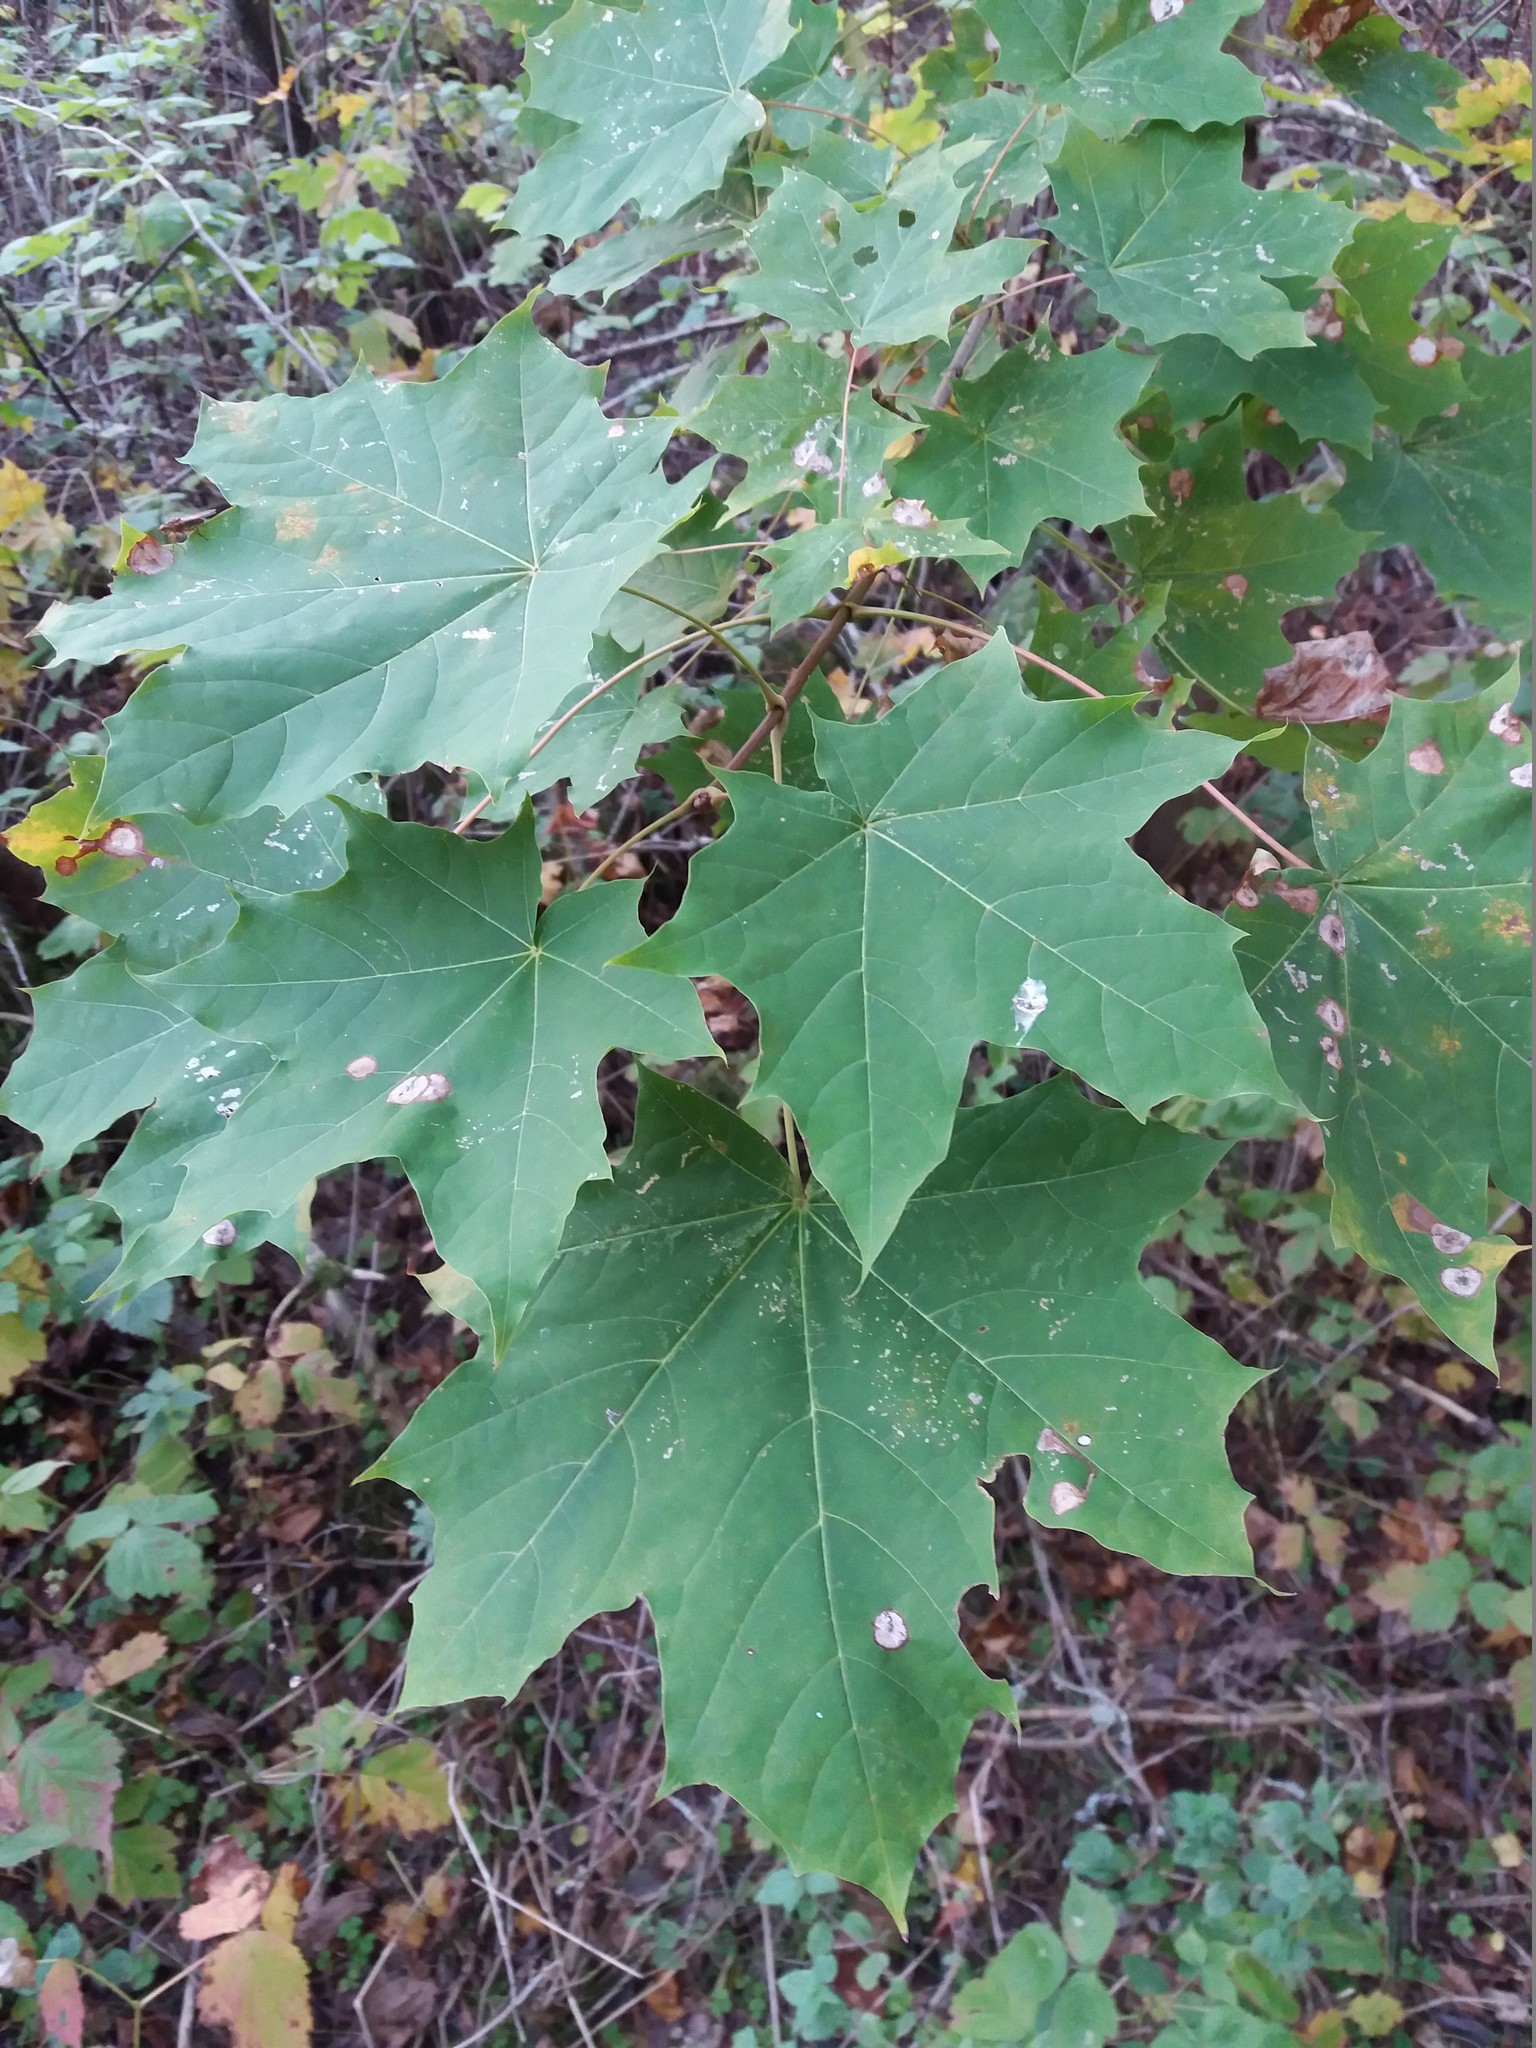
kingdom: Plantae
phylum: Tracheophyta
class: Magnoliopsida
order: Sapindales
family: Sapindaceae
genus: Acer
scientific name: Acer platanoides
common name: Norway maple
